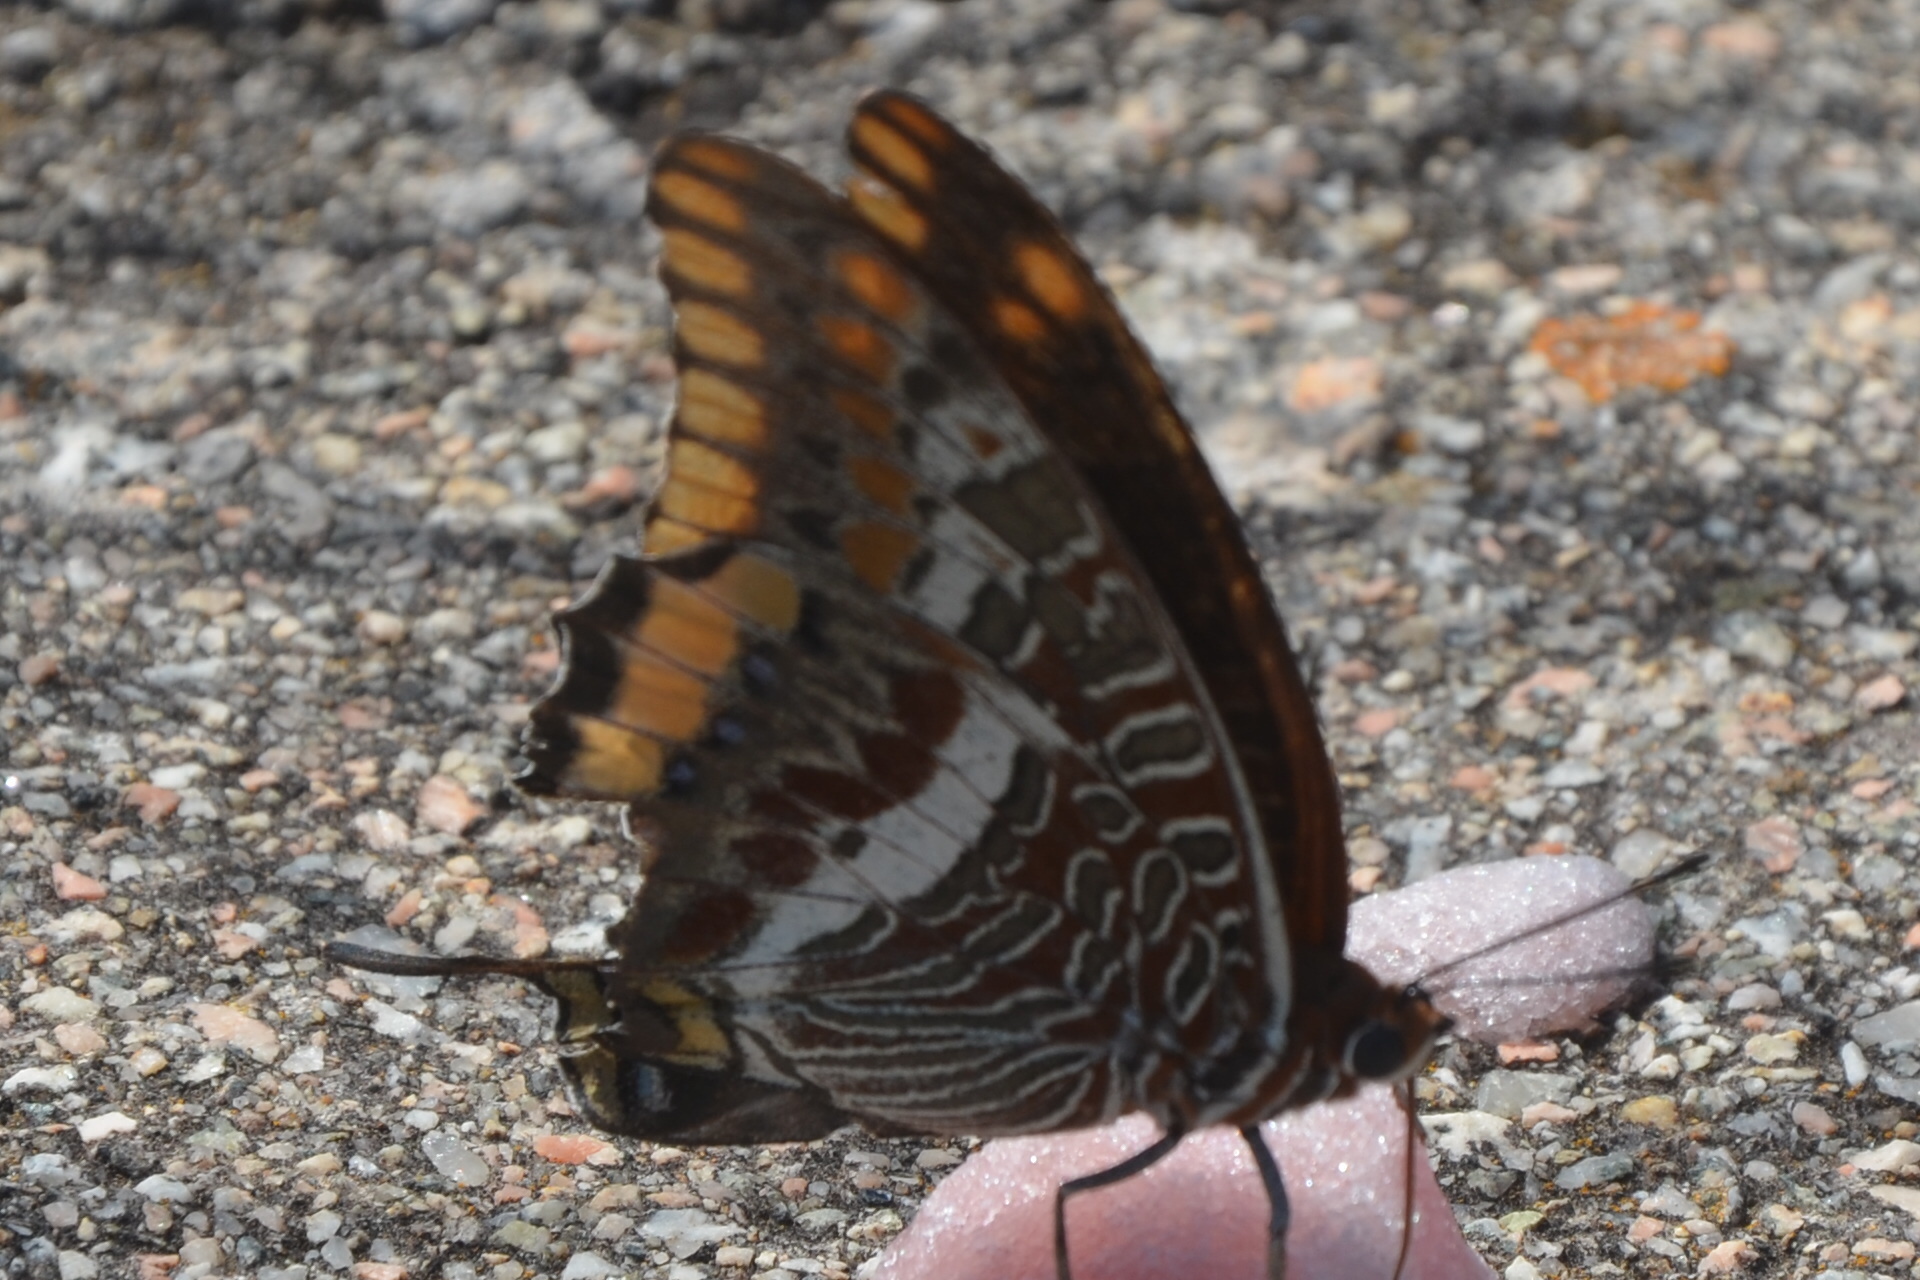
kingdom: Animalia
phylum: Arthropoda
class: Insecta
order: Lepidoptera
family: Nymphalidae
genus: Charaxes
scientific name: Charaxes jasius
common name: Two tailed pasha
